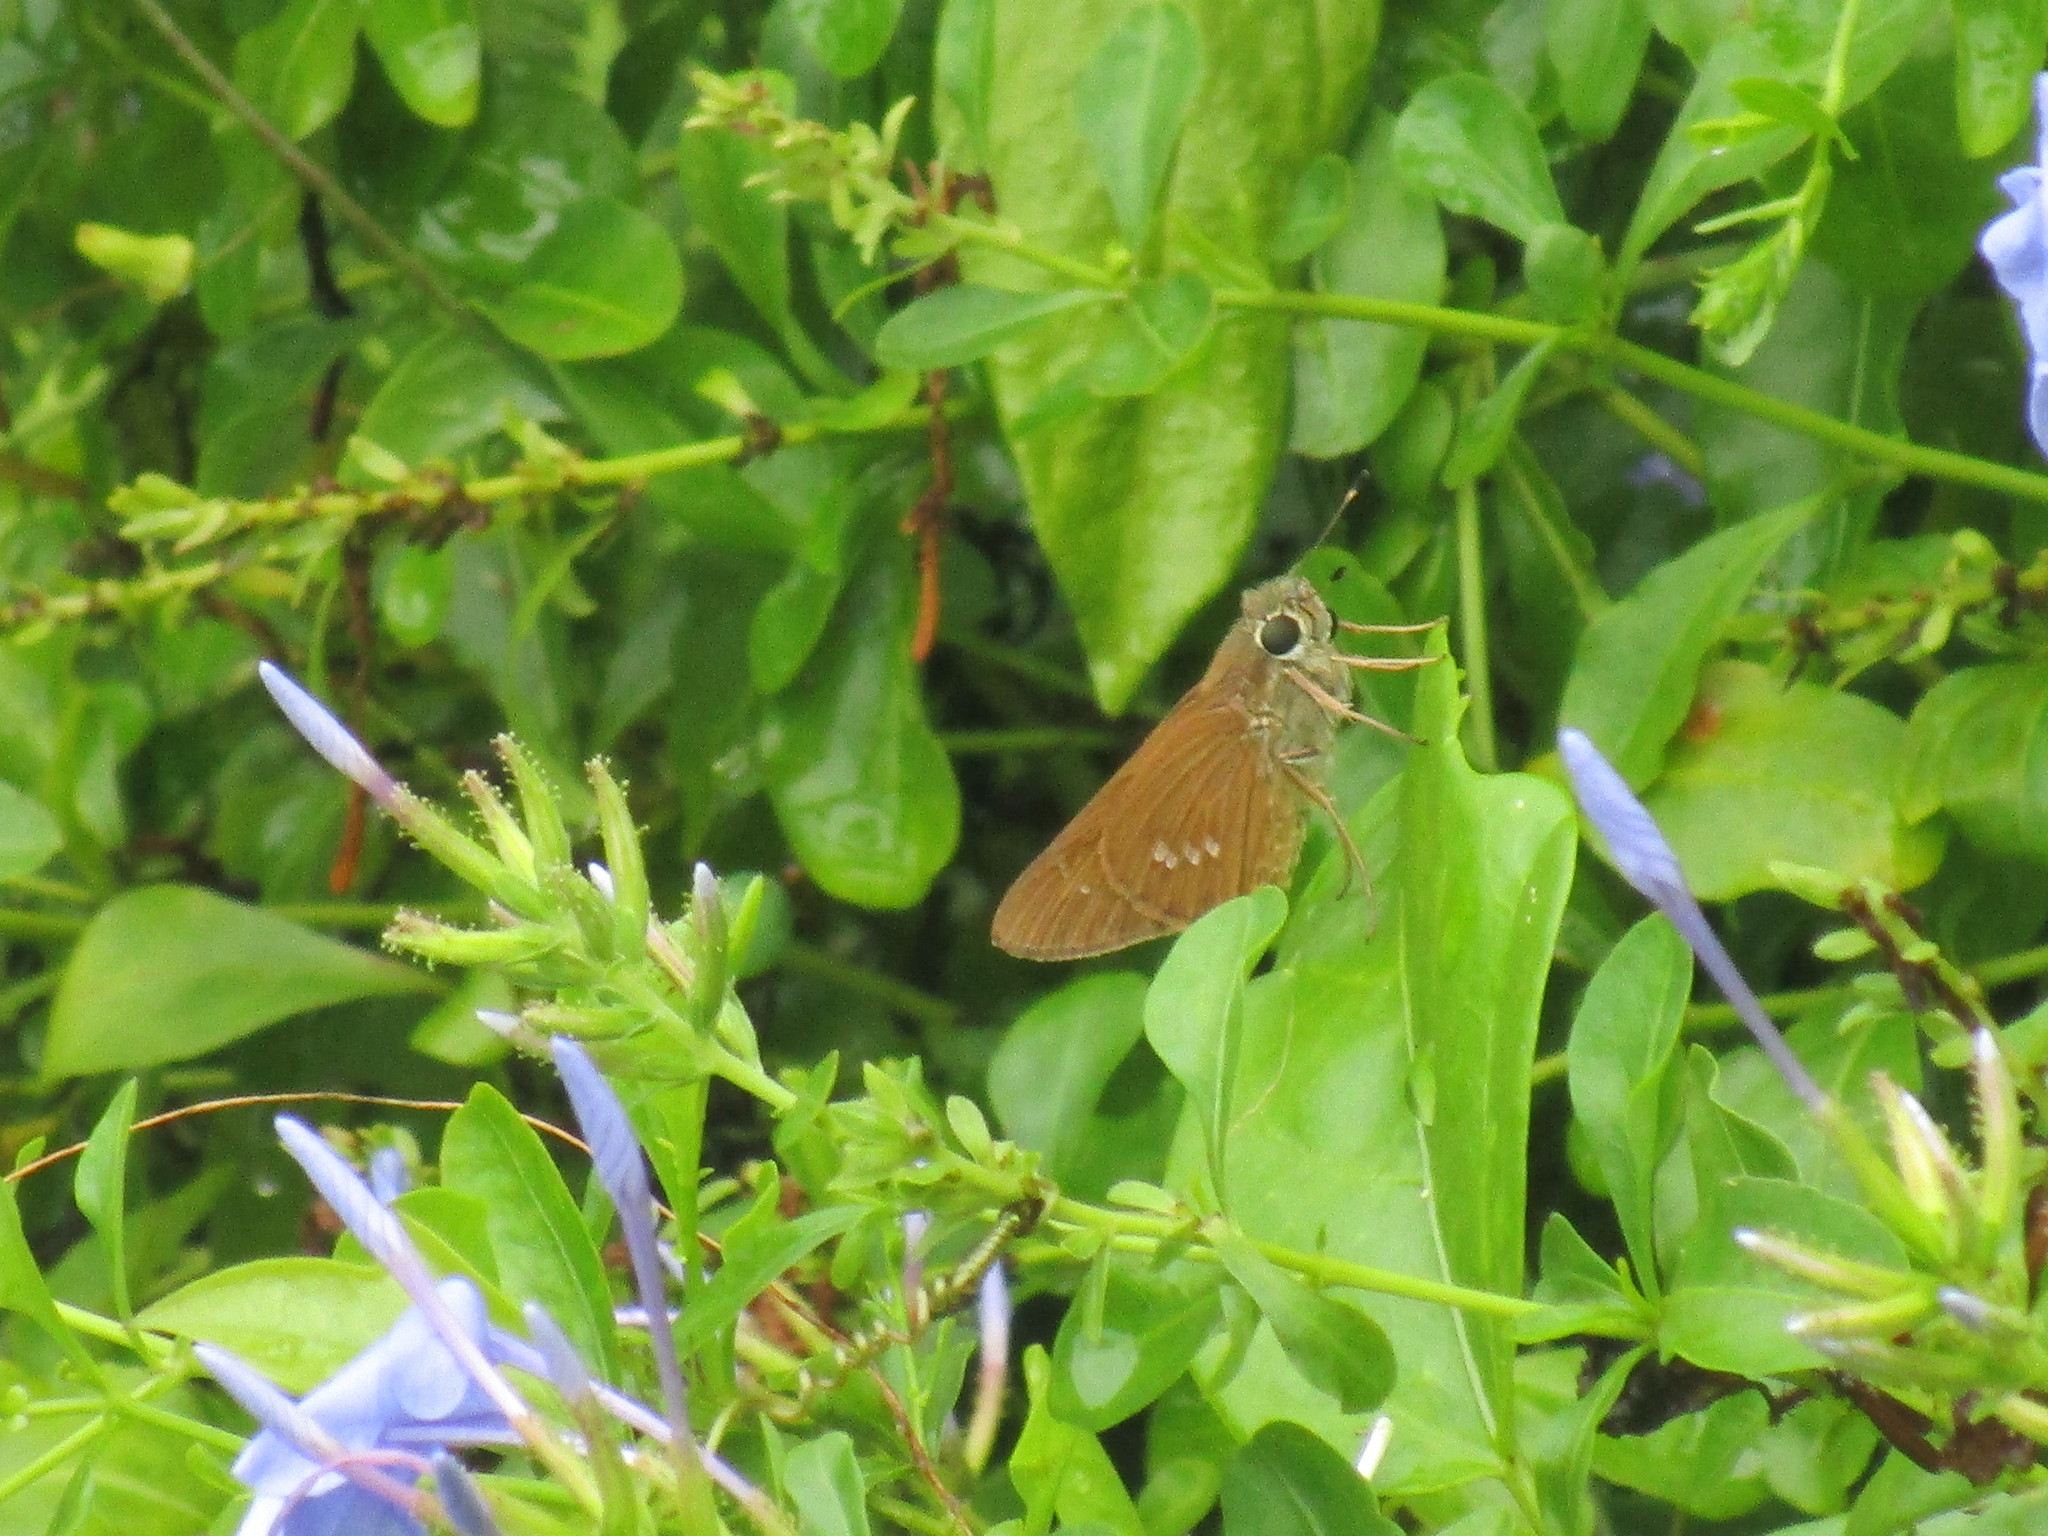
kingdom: Animalia
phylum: Arthropoda
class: Insecta
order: Lepidoptera
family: Hesperiidae
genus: Calpodes
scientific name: Calpodes ethlius
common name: Brazilian skipper
